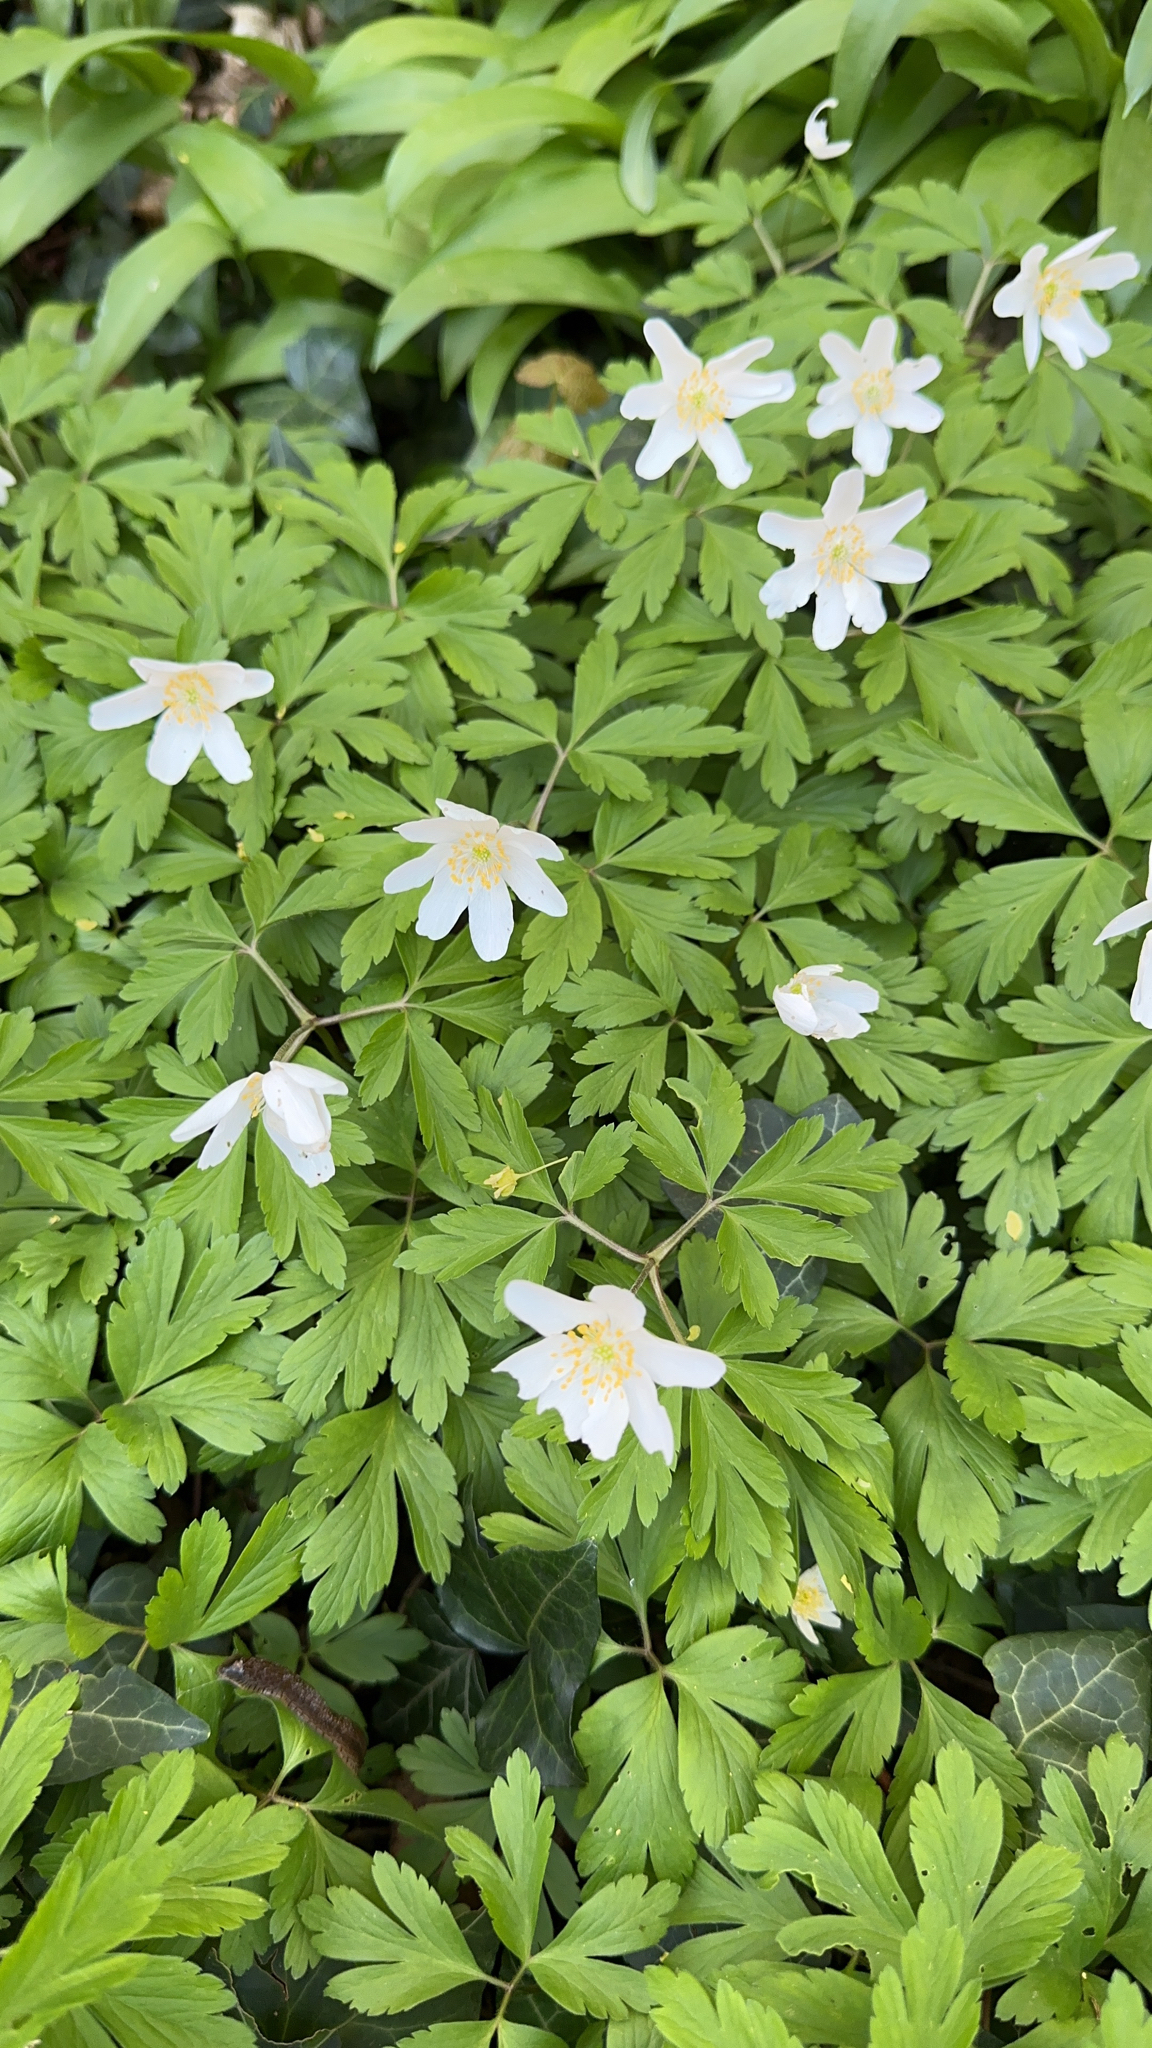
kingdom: Plantae
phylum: Tracheophyta
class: Magnoliopsida
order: Ranunculales
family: Ranunculaceae
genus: Anemone
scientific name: Anemone nemorosa
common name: Wood anemone
